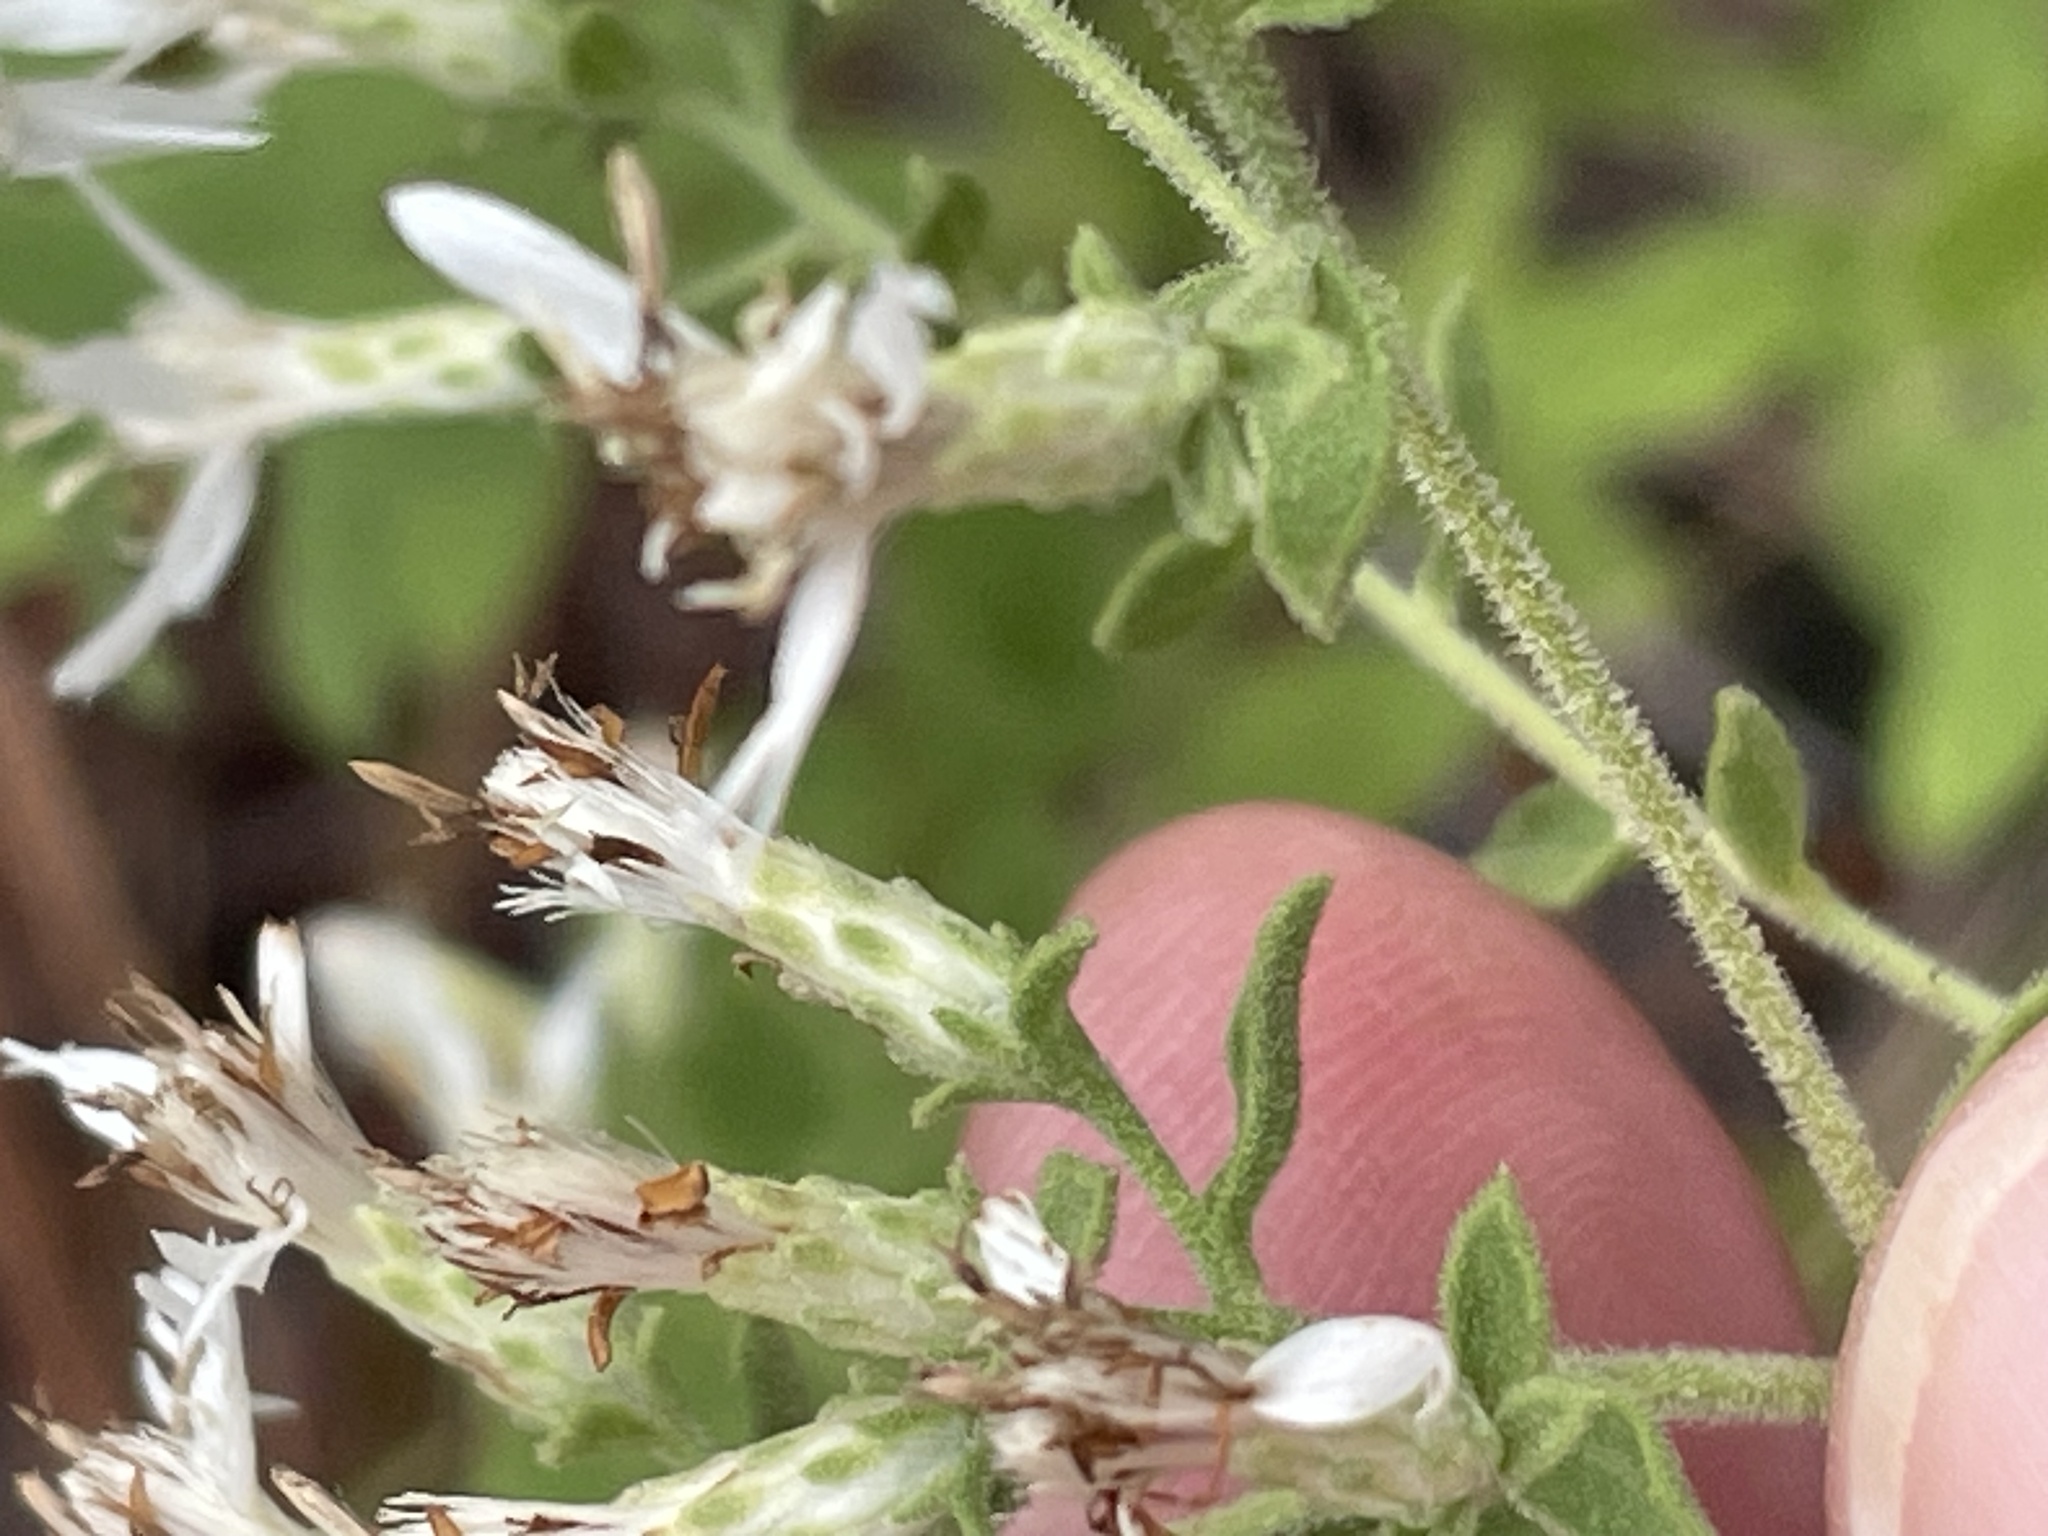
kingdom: Plantae
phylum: Tracheophyta
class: Magnoliopsida
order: Asterales
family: Asteraceae
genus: Sericocarpus
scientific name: Sericocarpus tortifolius
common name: Dixie aster
